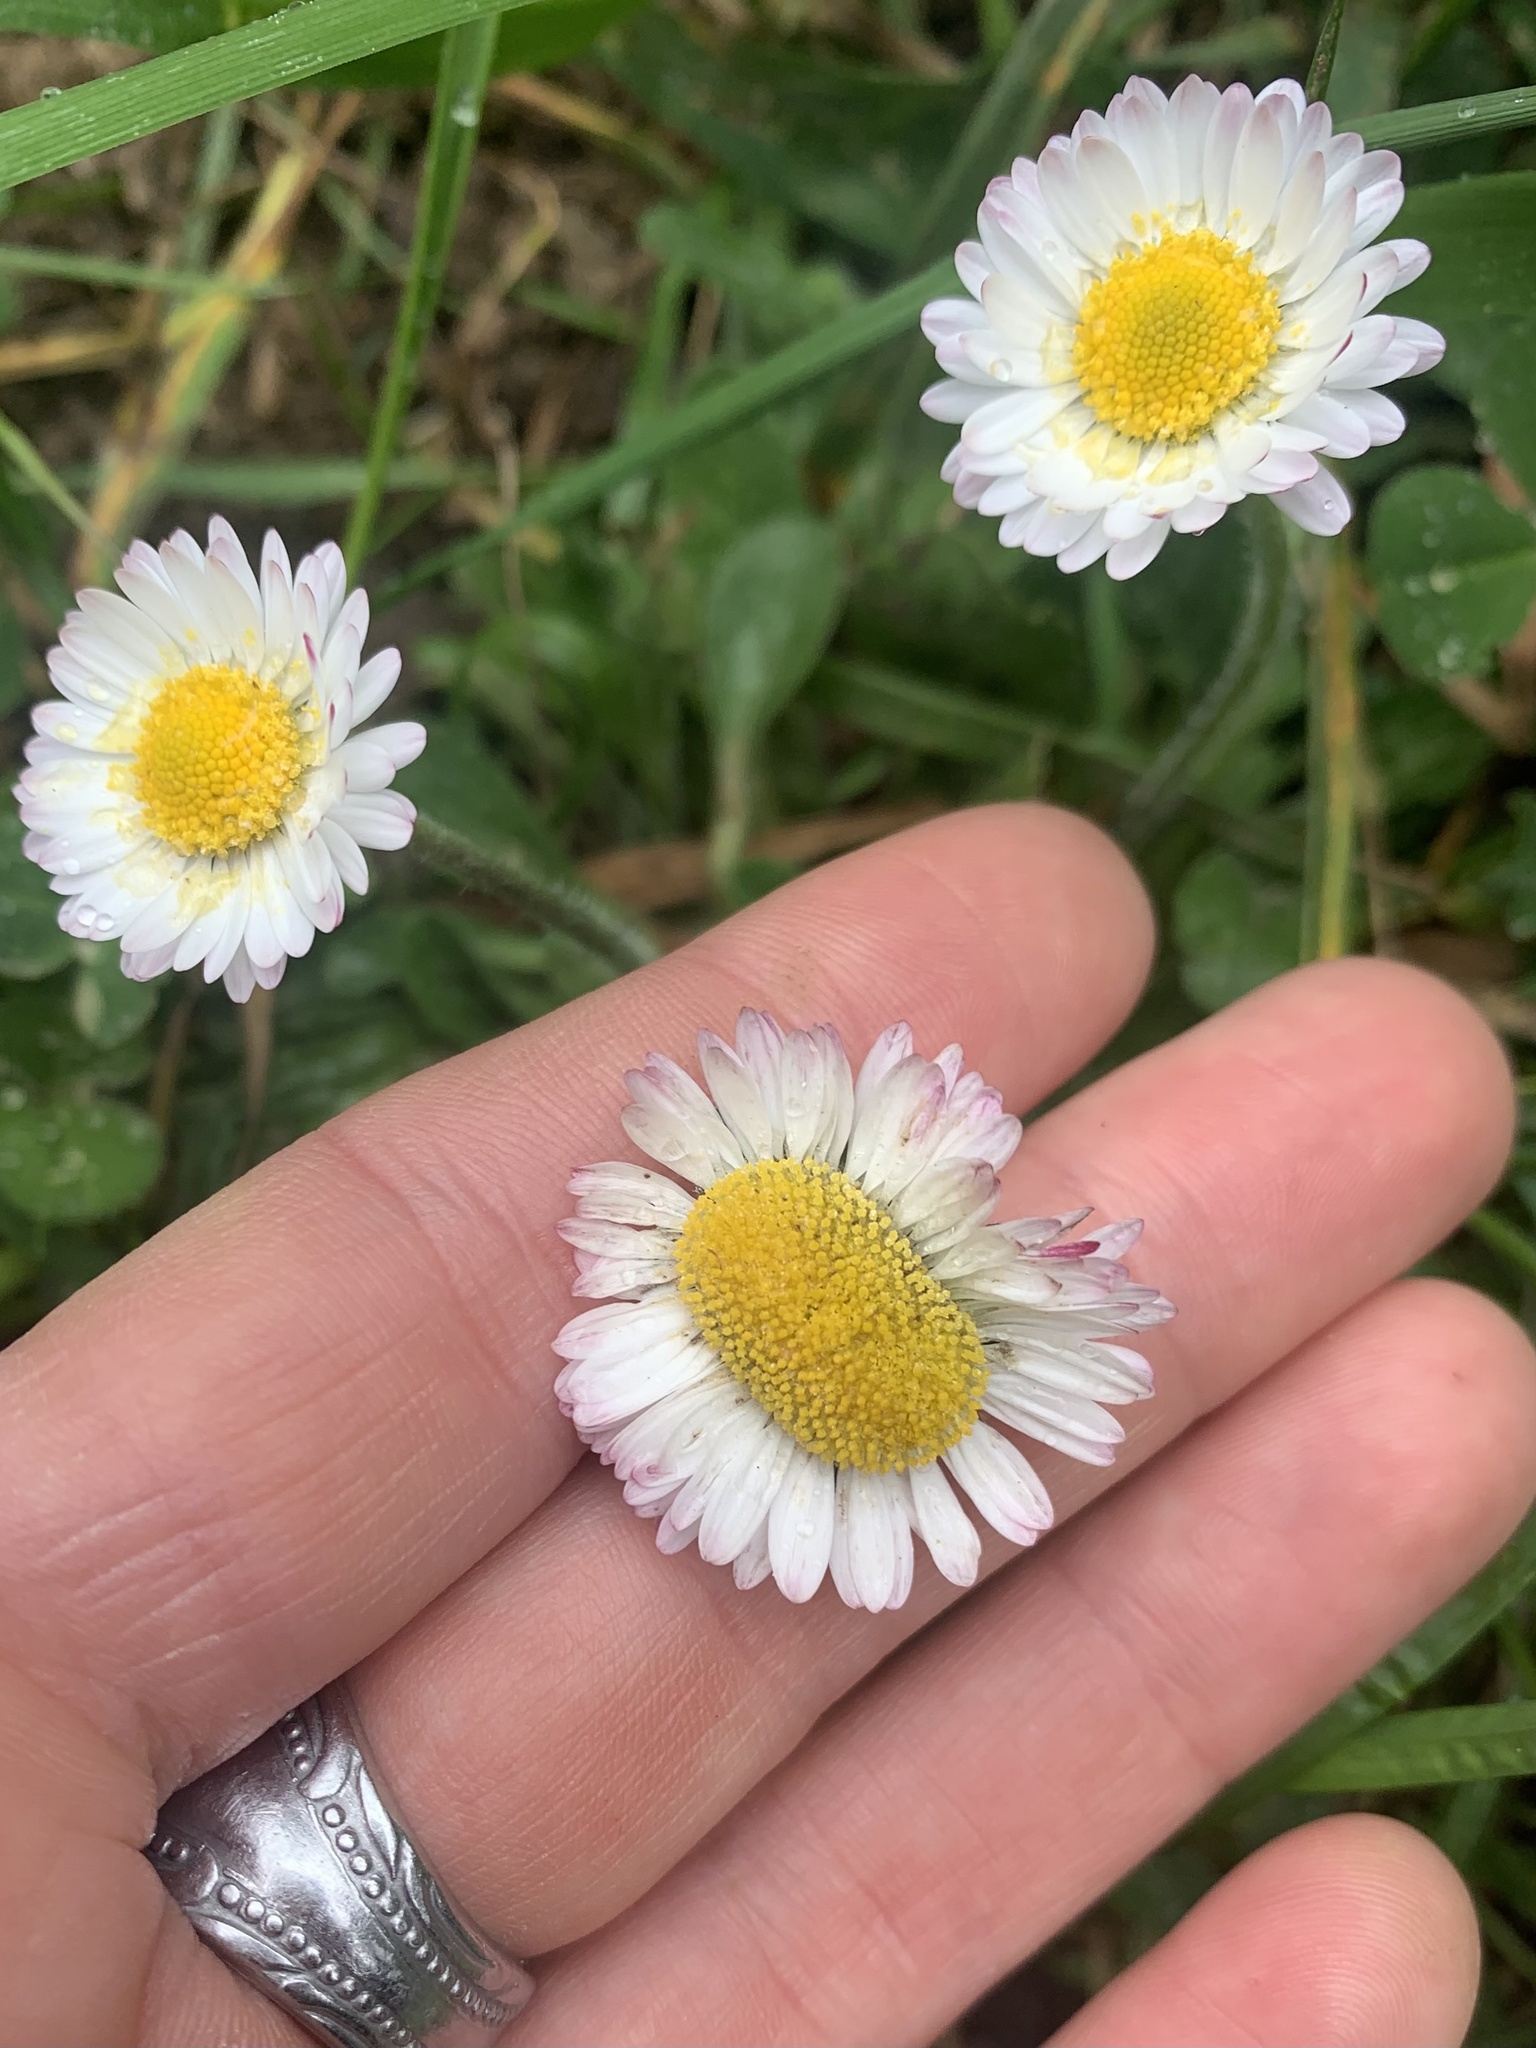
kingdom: Plantae
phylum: Tracheophyta
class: Magnoliopsida
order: Asterales
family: Asteraceae
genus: Bellis
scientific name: Bellis perennis
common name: Lawndaisy
